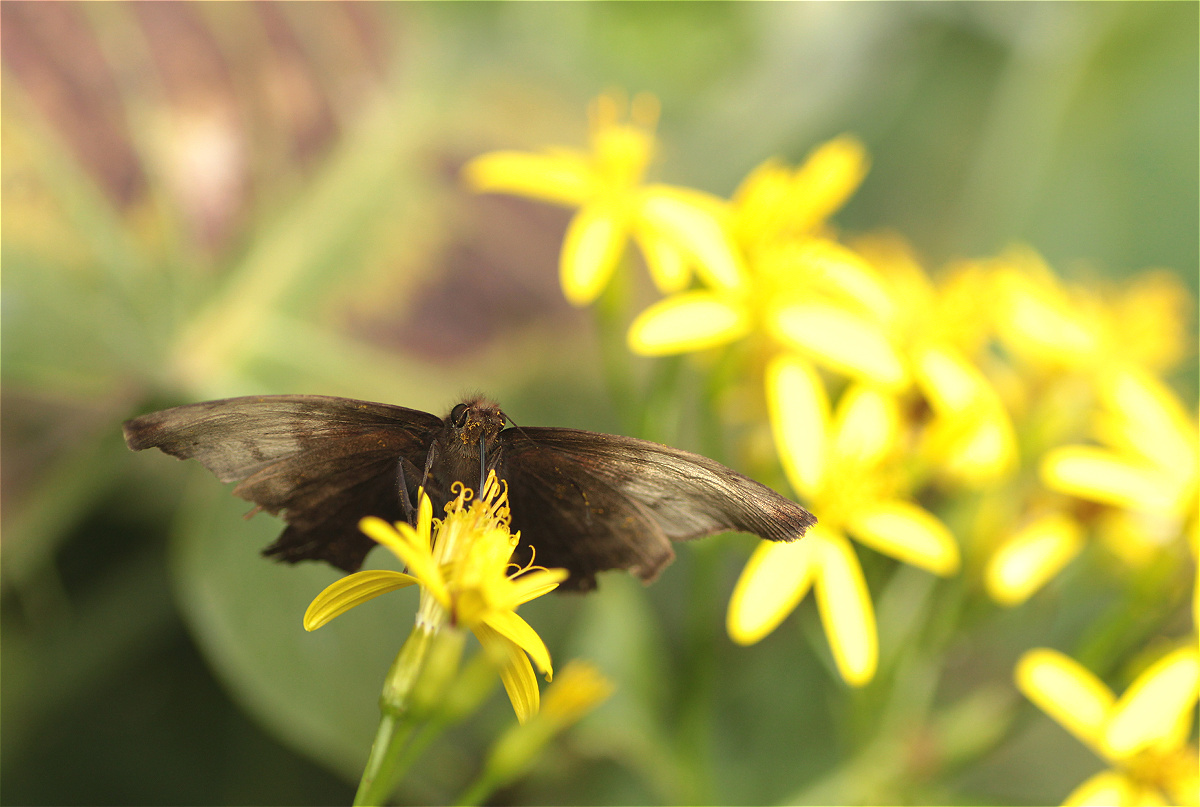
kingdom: Animalia
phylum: Arthropoda
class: Insecta
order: Lepidoptera
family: Hesperiidae
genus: Achlyodes
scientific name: Achlyodes pallida
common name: Pale sicklewing
